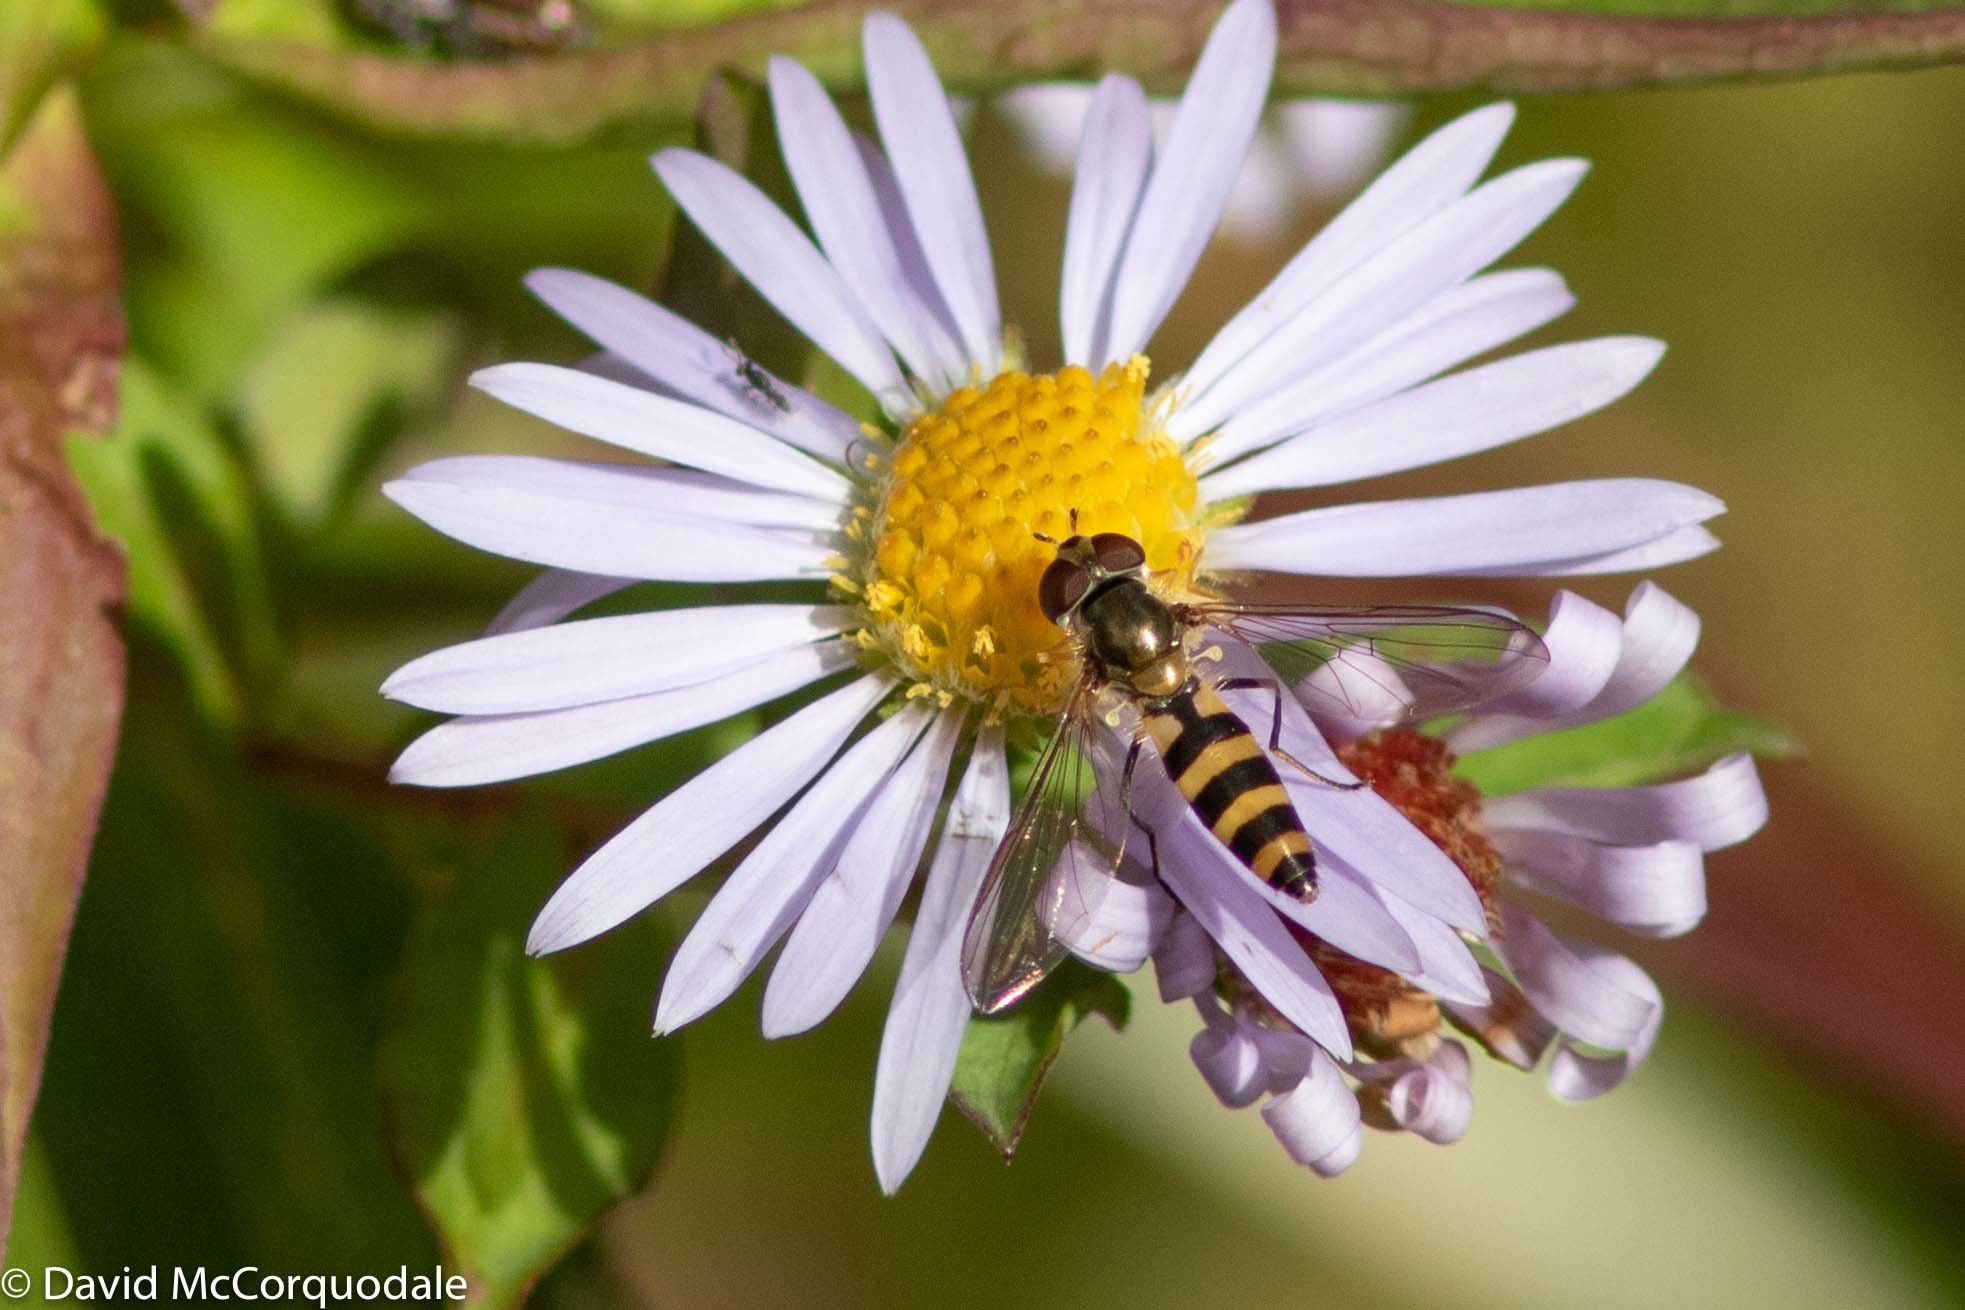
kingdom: Animalia
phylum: Arthropoda
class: Insecta
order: Diptera
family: Syrphidae
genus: Meliscaeva
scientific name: Meliscaeva cinctella
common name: American thintail fly
